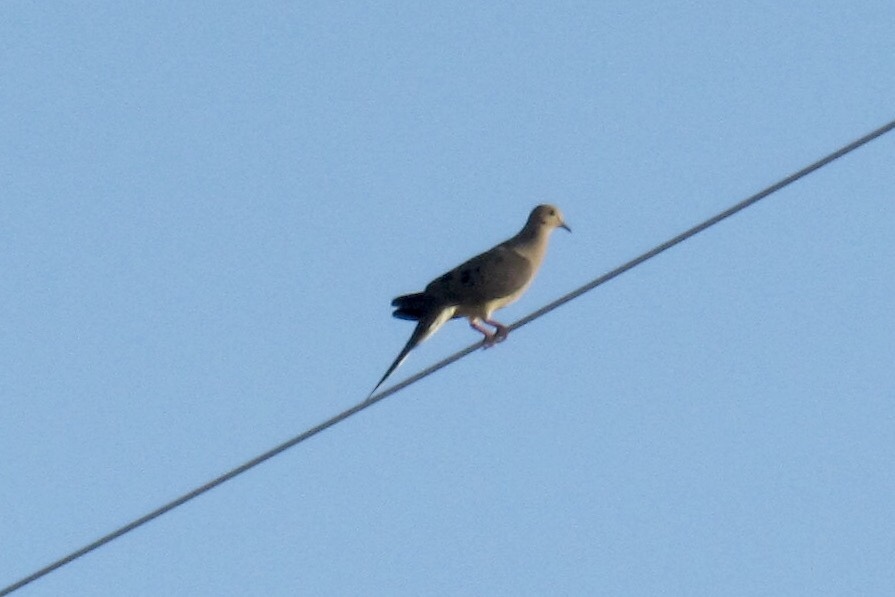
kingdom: Animalia
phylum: Chordata
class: Aves
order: Columbiformes
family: Columbidae
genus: Zenaida
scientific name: Zenaida macroura
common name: Mourning dove
